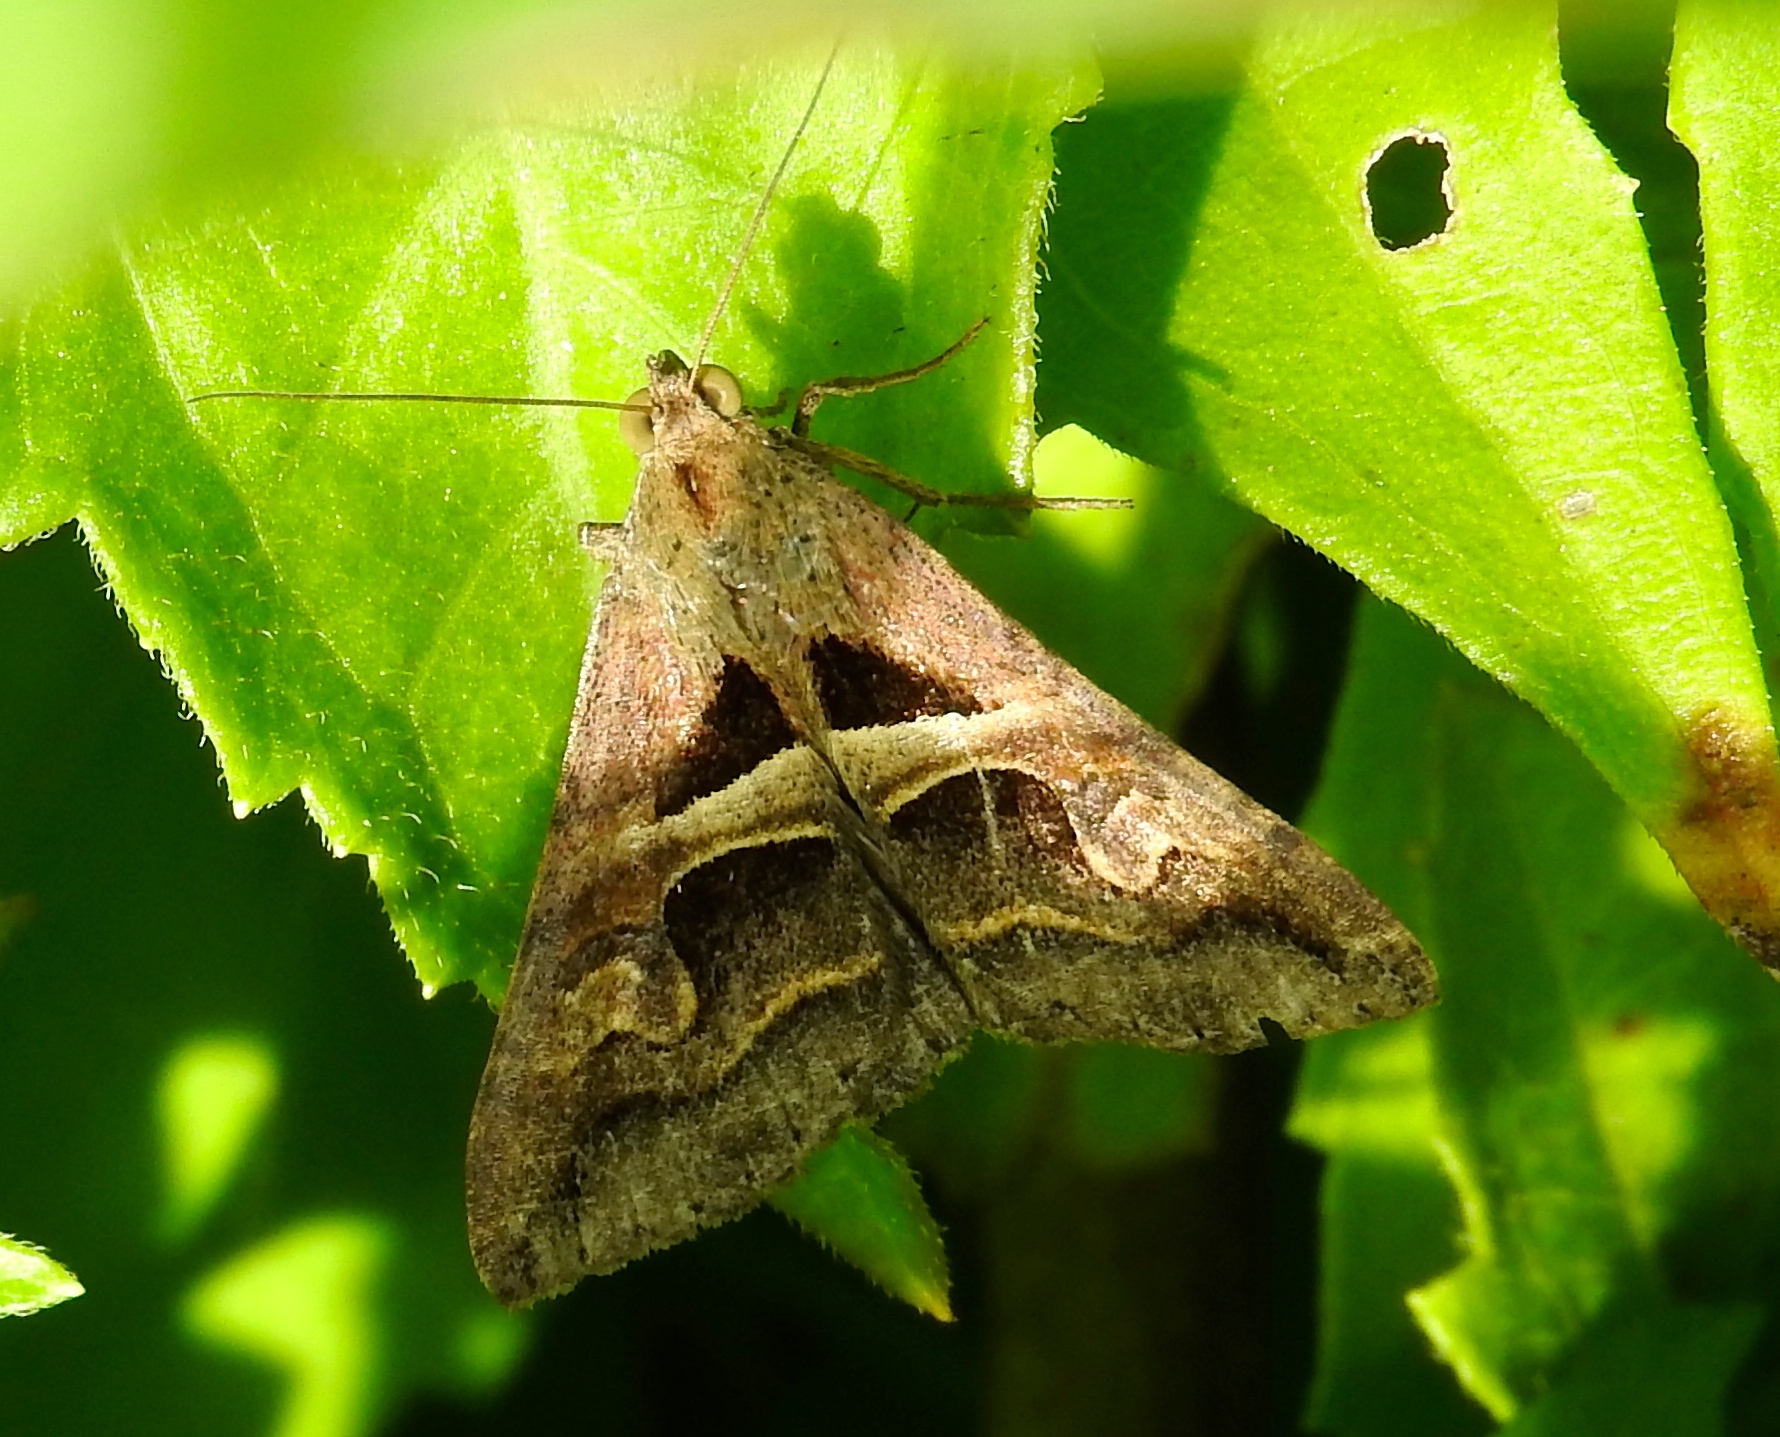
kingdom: Animalia
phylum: Arthropoda
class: Insecta
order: Lepidoptera
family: Erebidae
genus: Melipotis
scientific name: Melipotis cellaris
